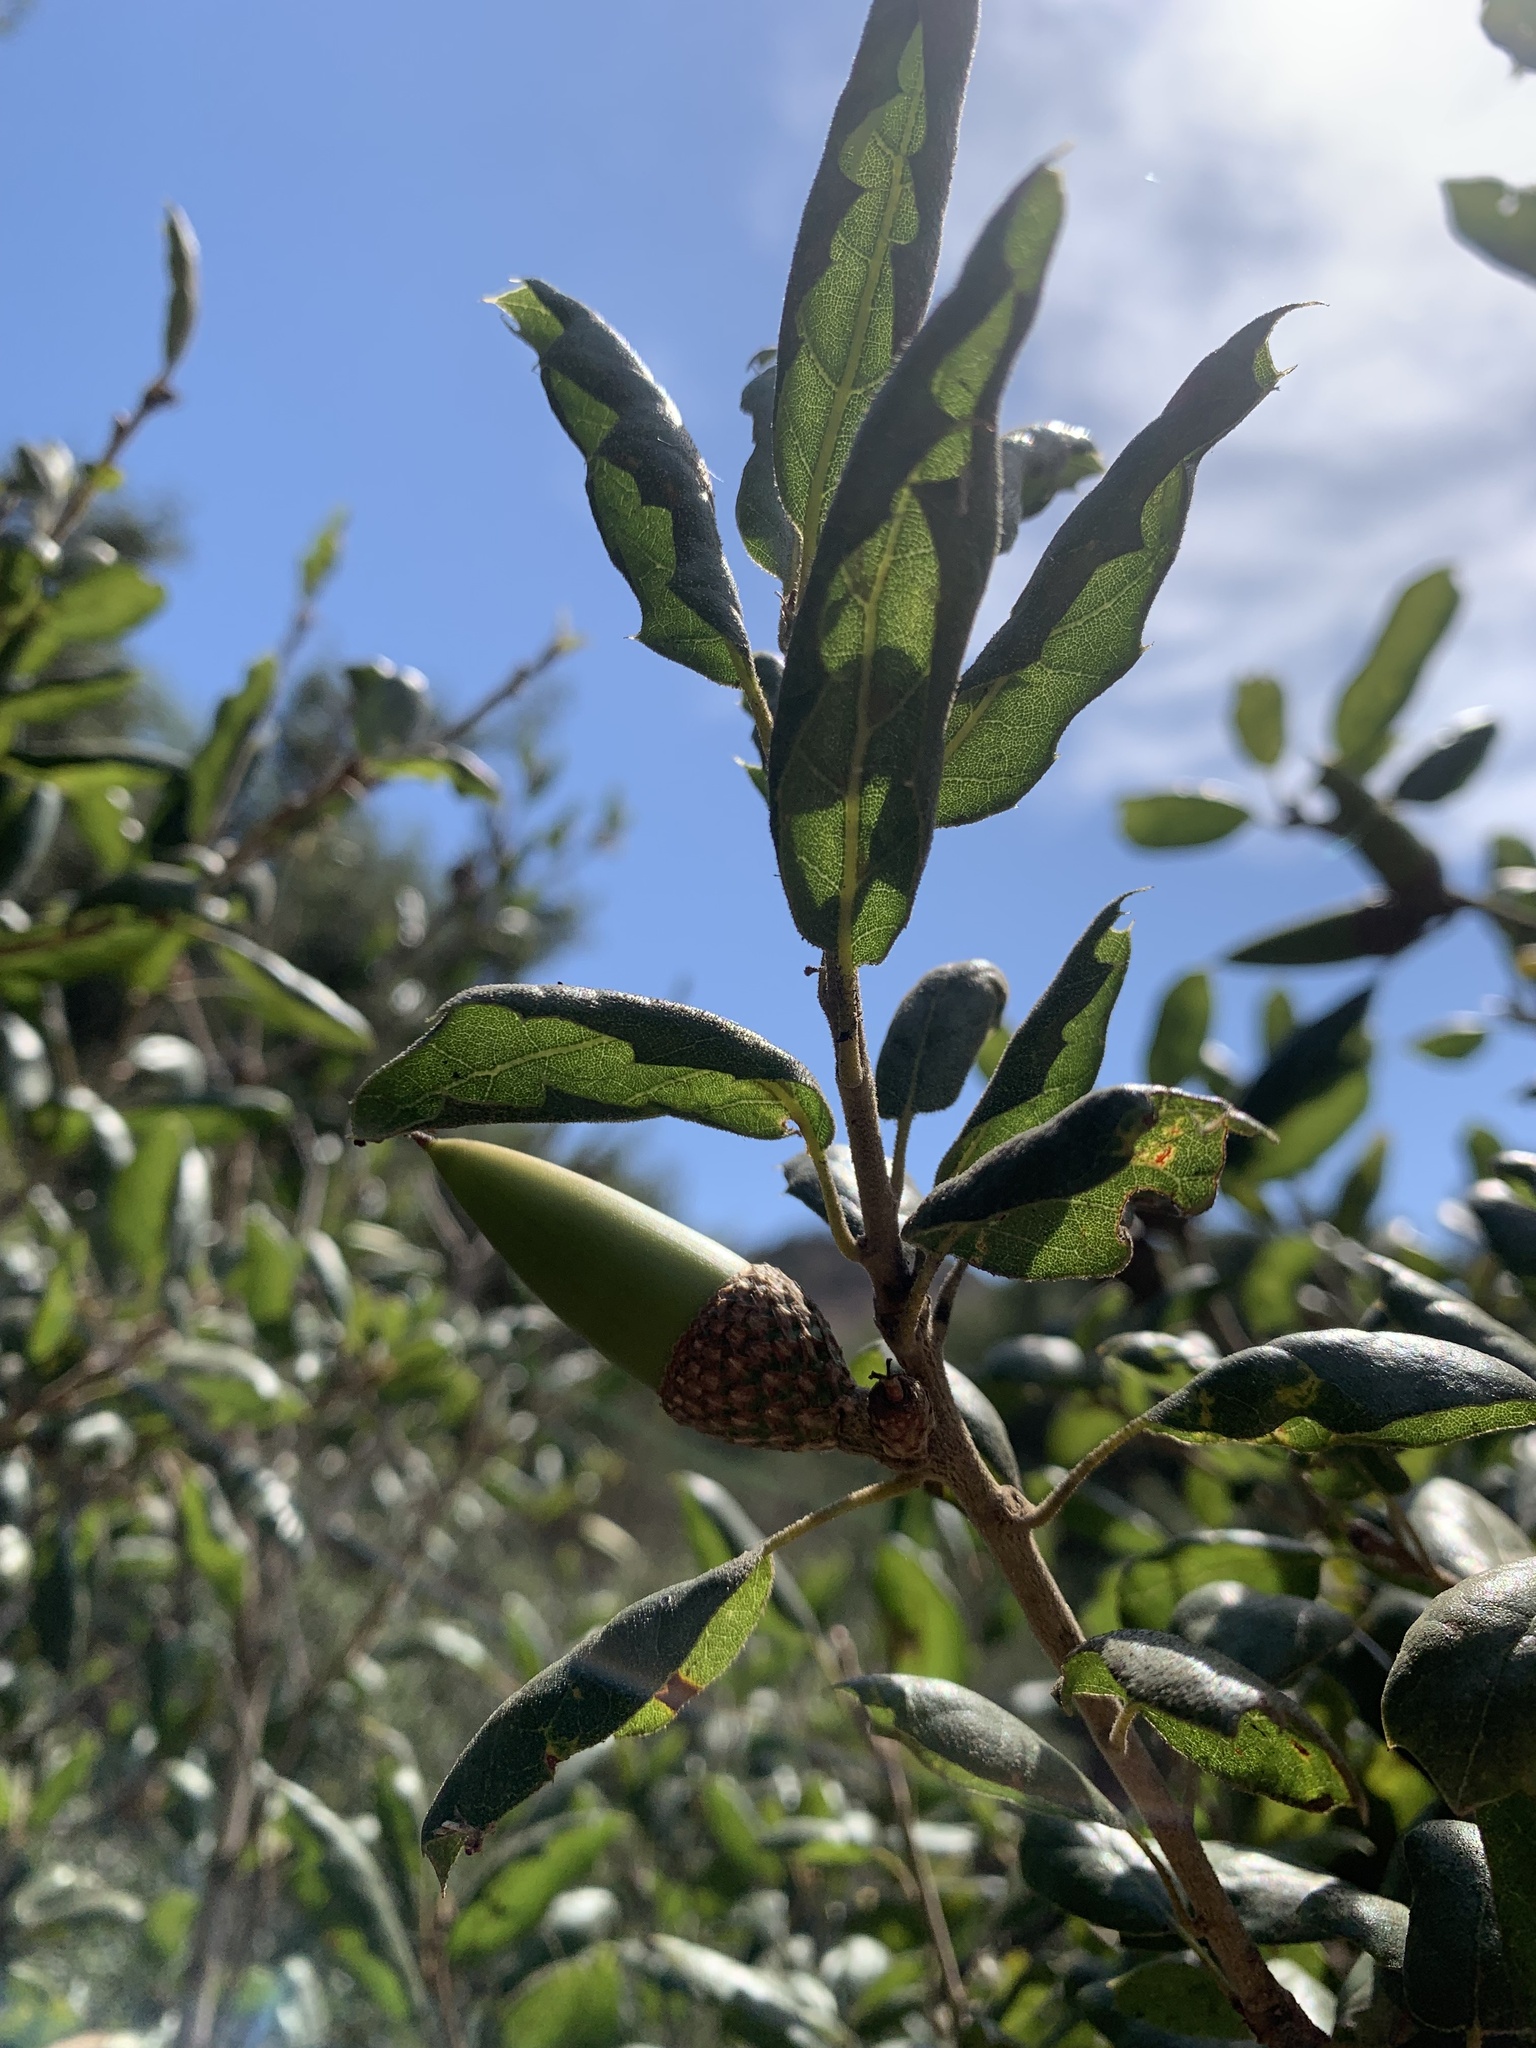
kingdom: Plantae
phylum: Tracheophyta
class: Magnoliopsida
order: Fagales
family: Fagaceae
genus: Quercus
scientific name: Quercus agrifolia
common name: California live oak
